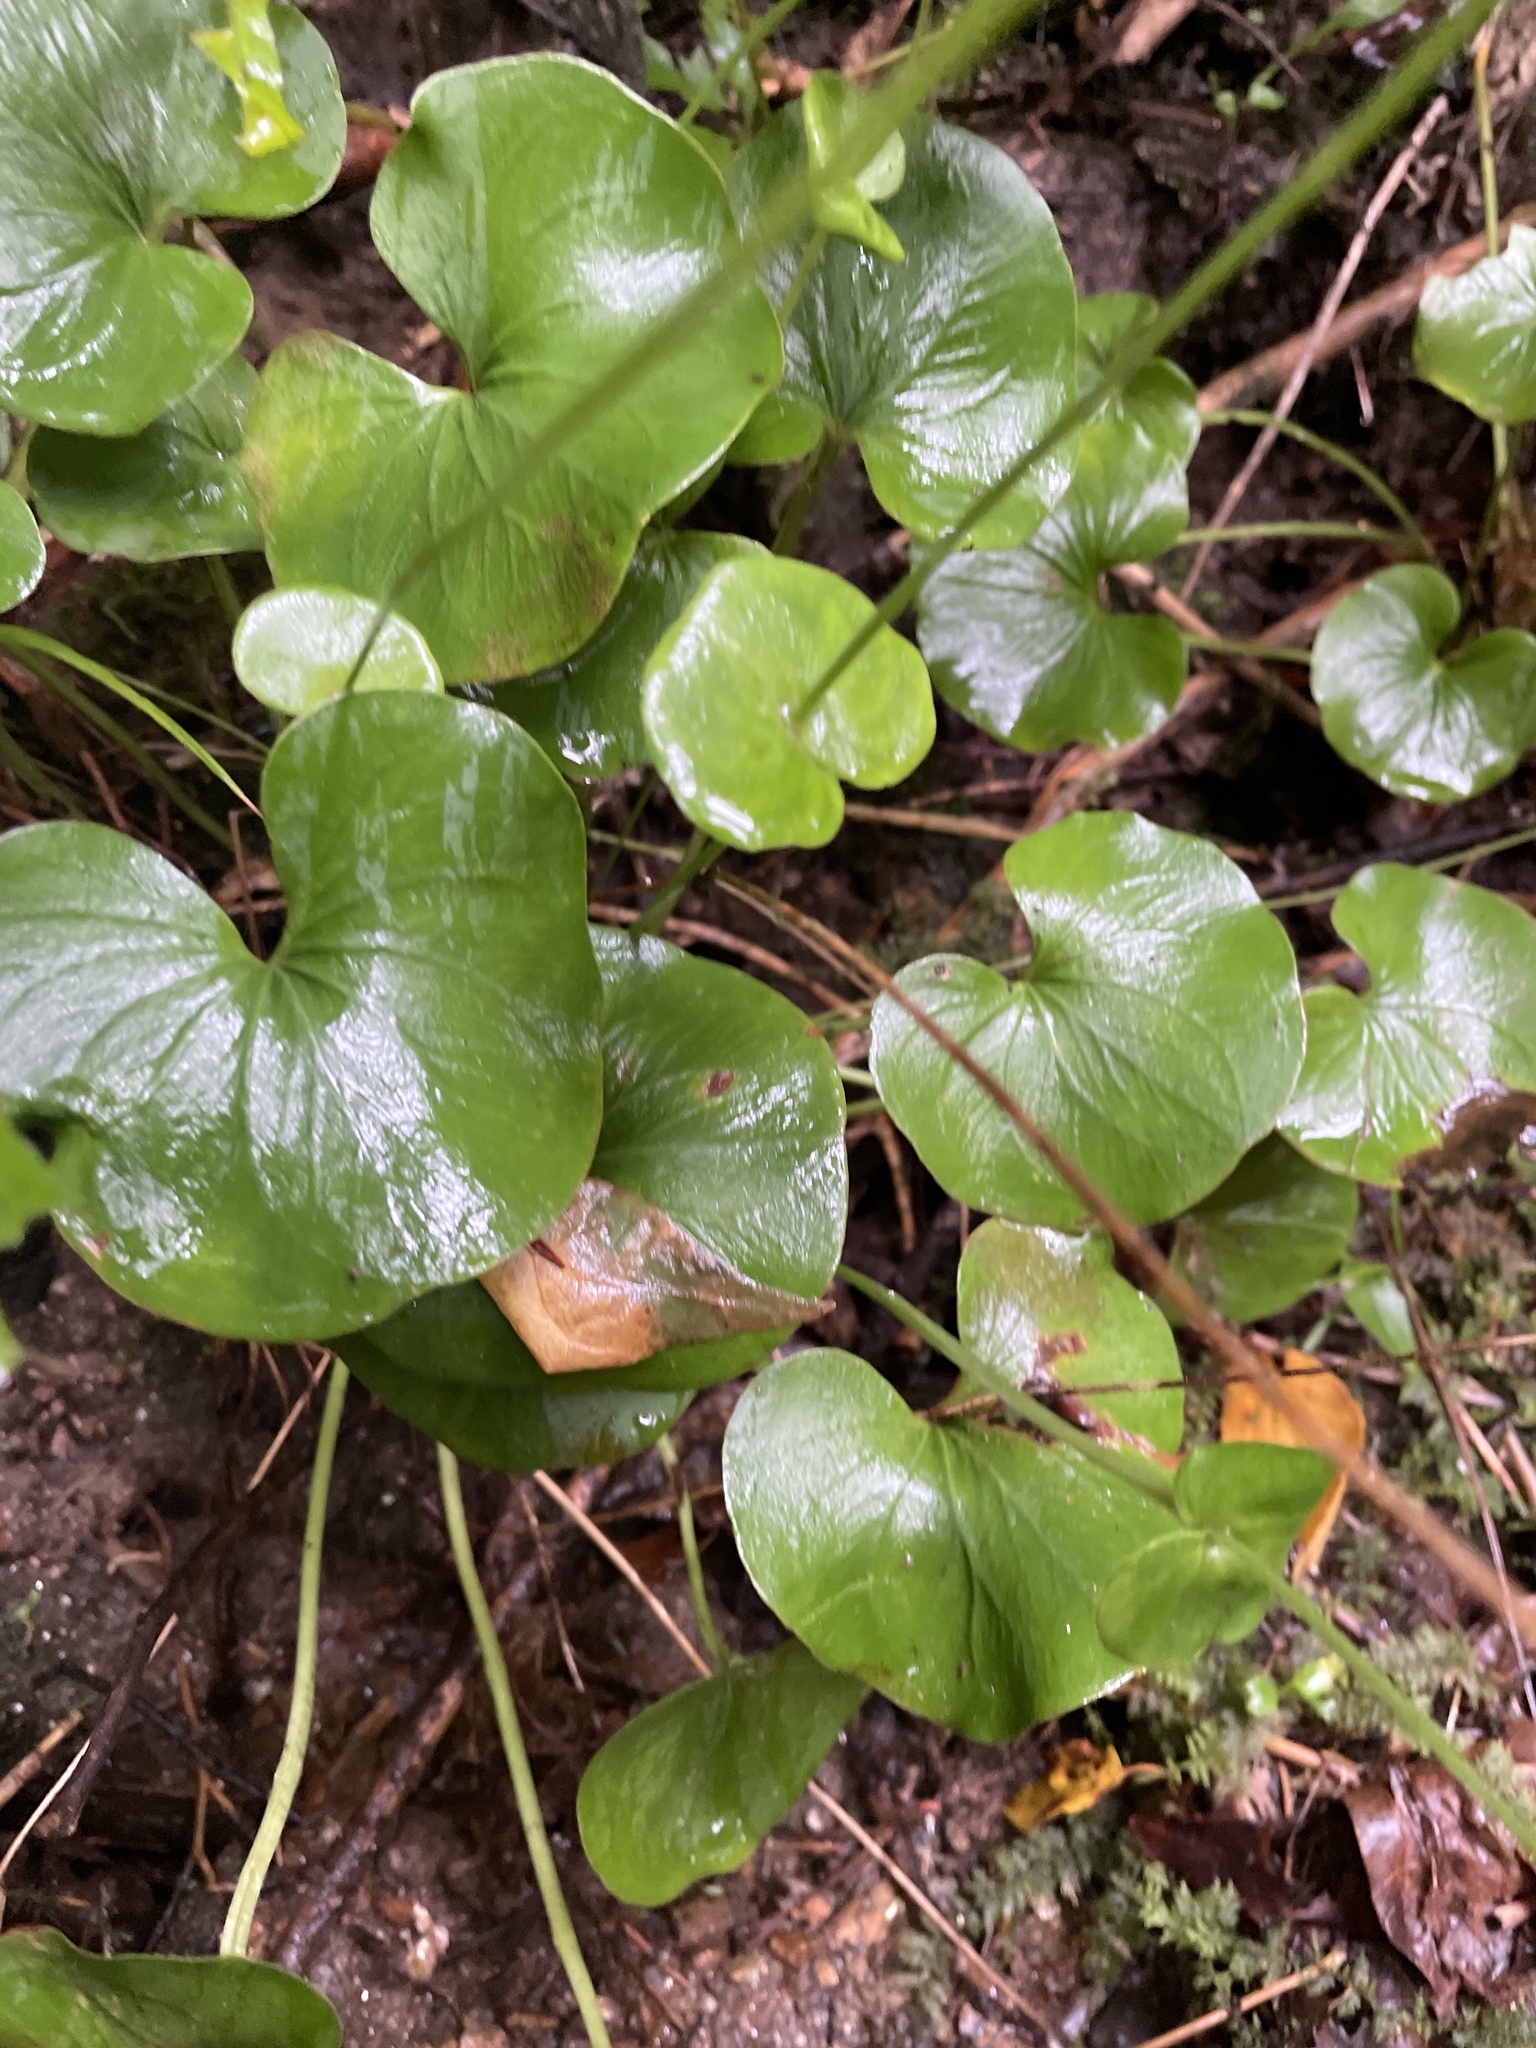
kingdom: Plantae
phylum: Tracheophyta
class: Magnoliopsida
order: Celastrales
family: Parnassiaceae
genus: Parnassia
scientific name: Parnassia asarifolia
